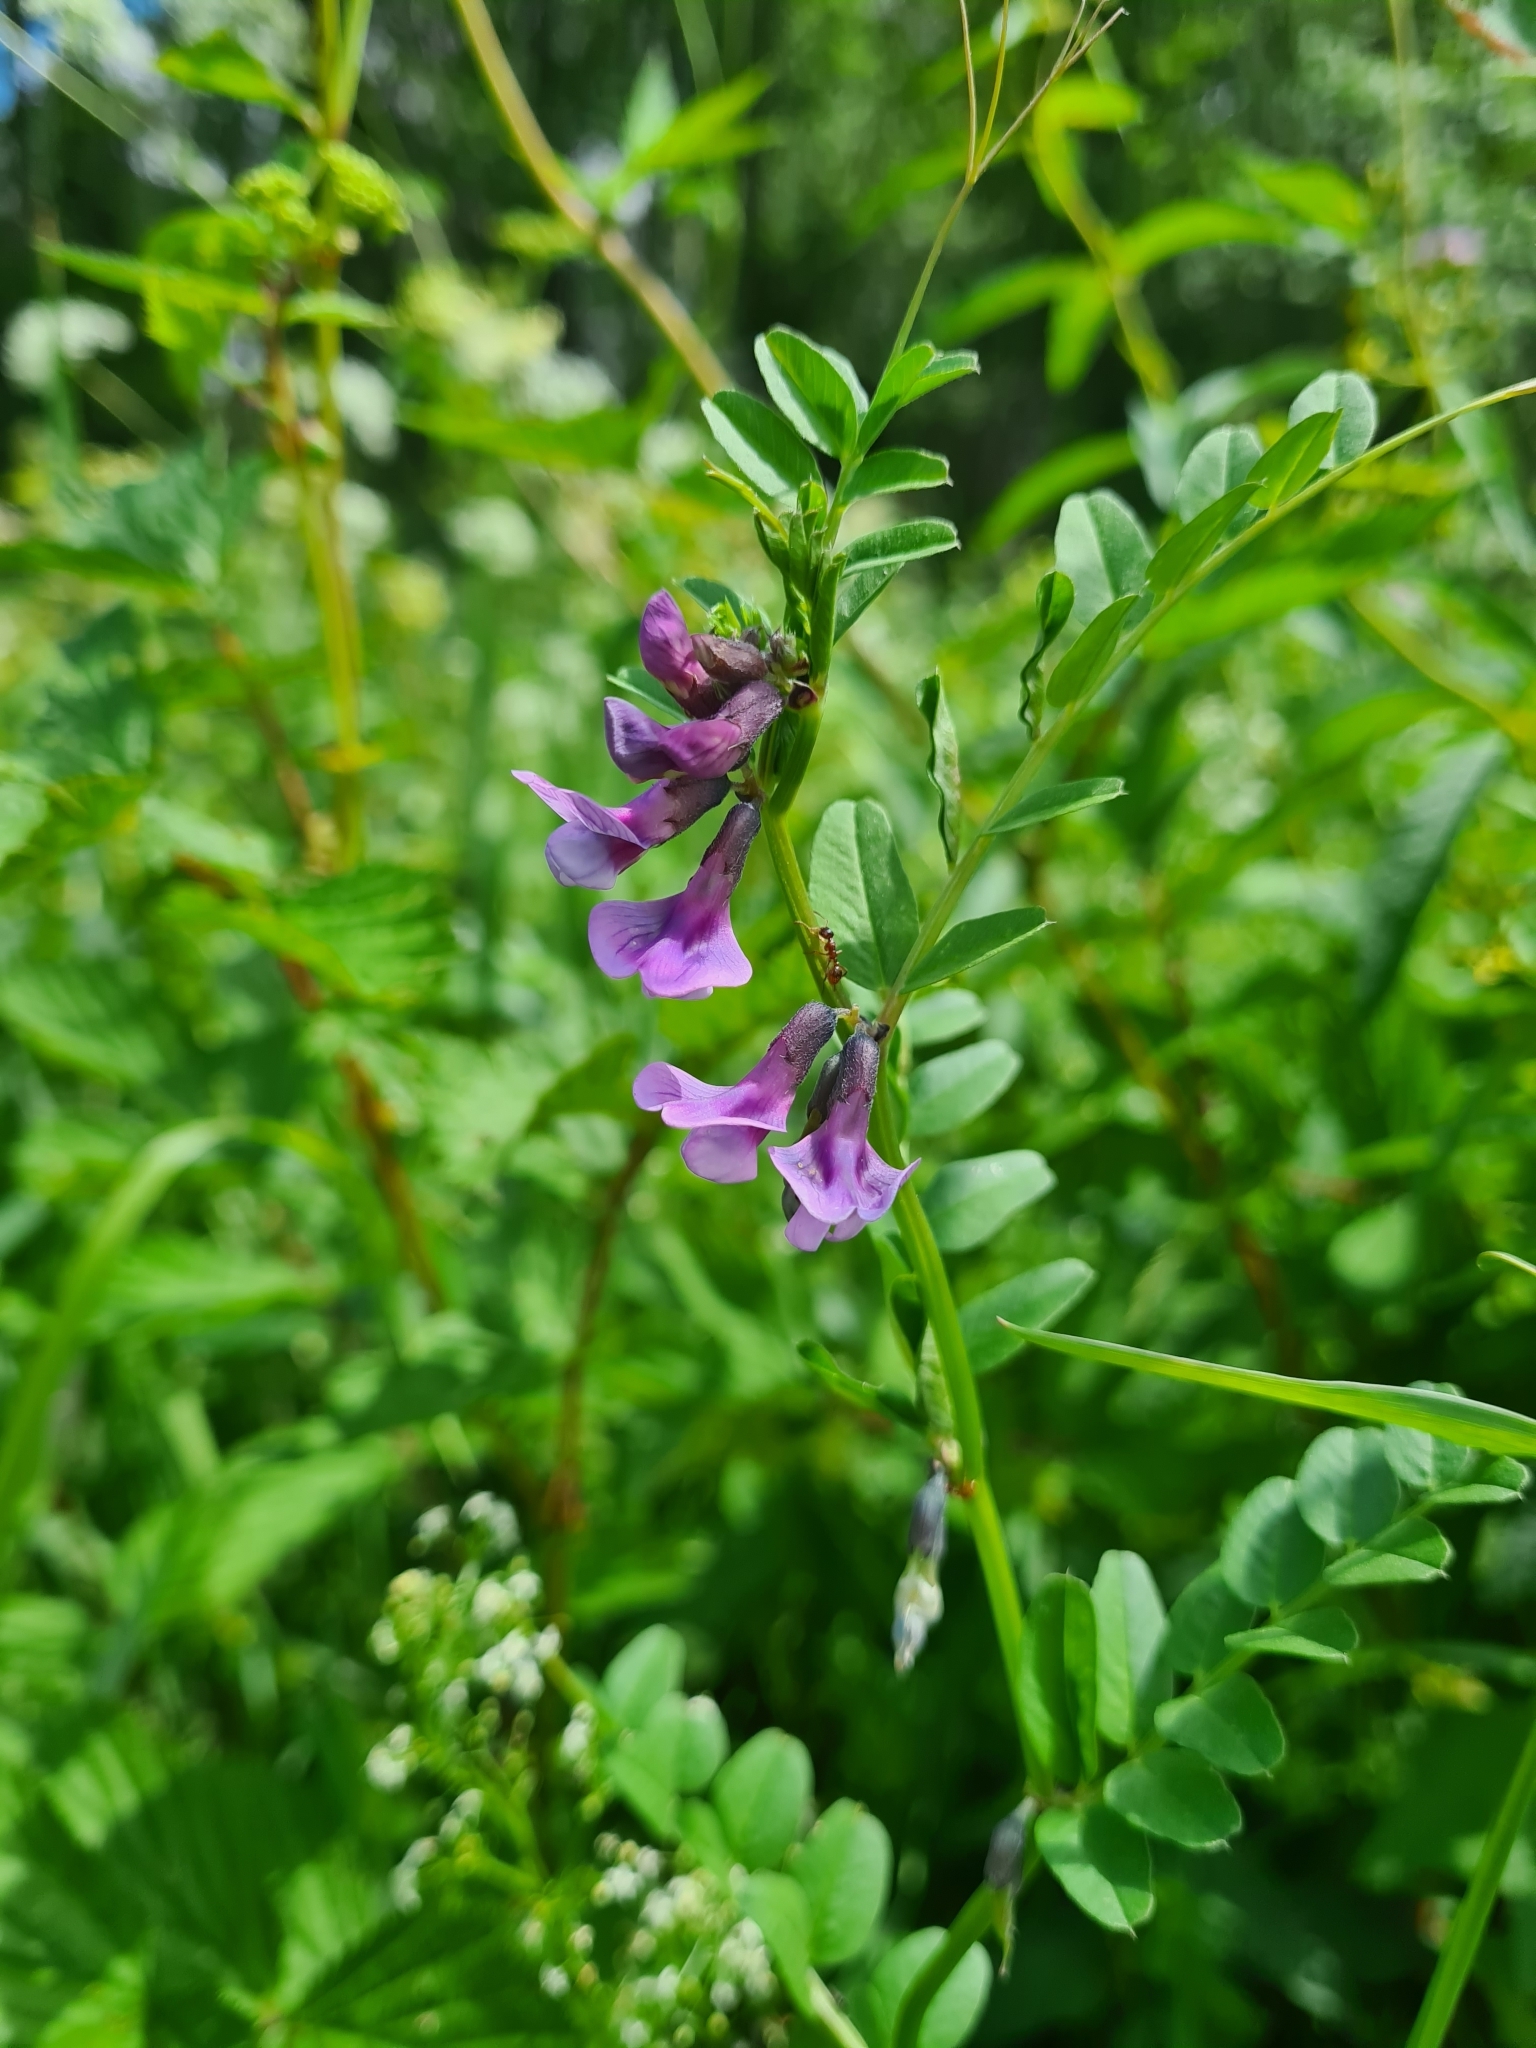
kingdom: Plantae
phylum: Tracheophyta
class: Magnoliopsida
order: Fabales
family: Fabaceae
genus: Vicia
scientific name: Vicia sepium
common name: Bush vetch
